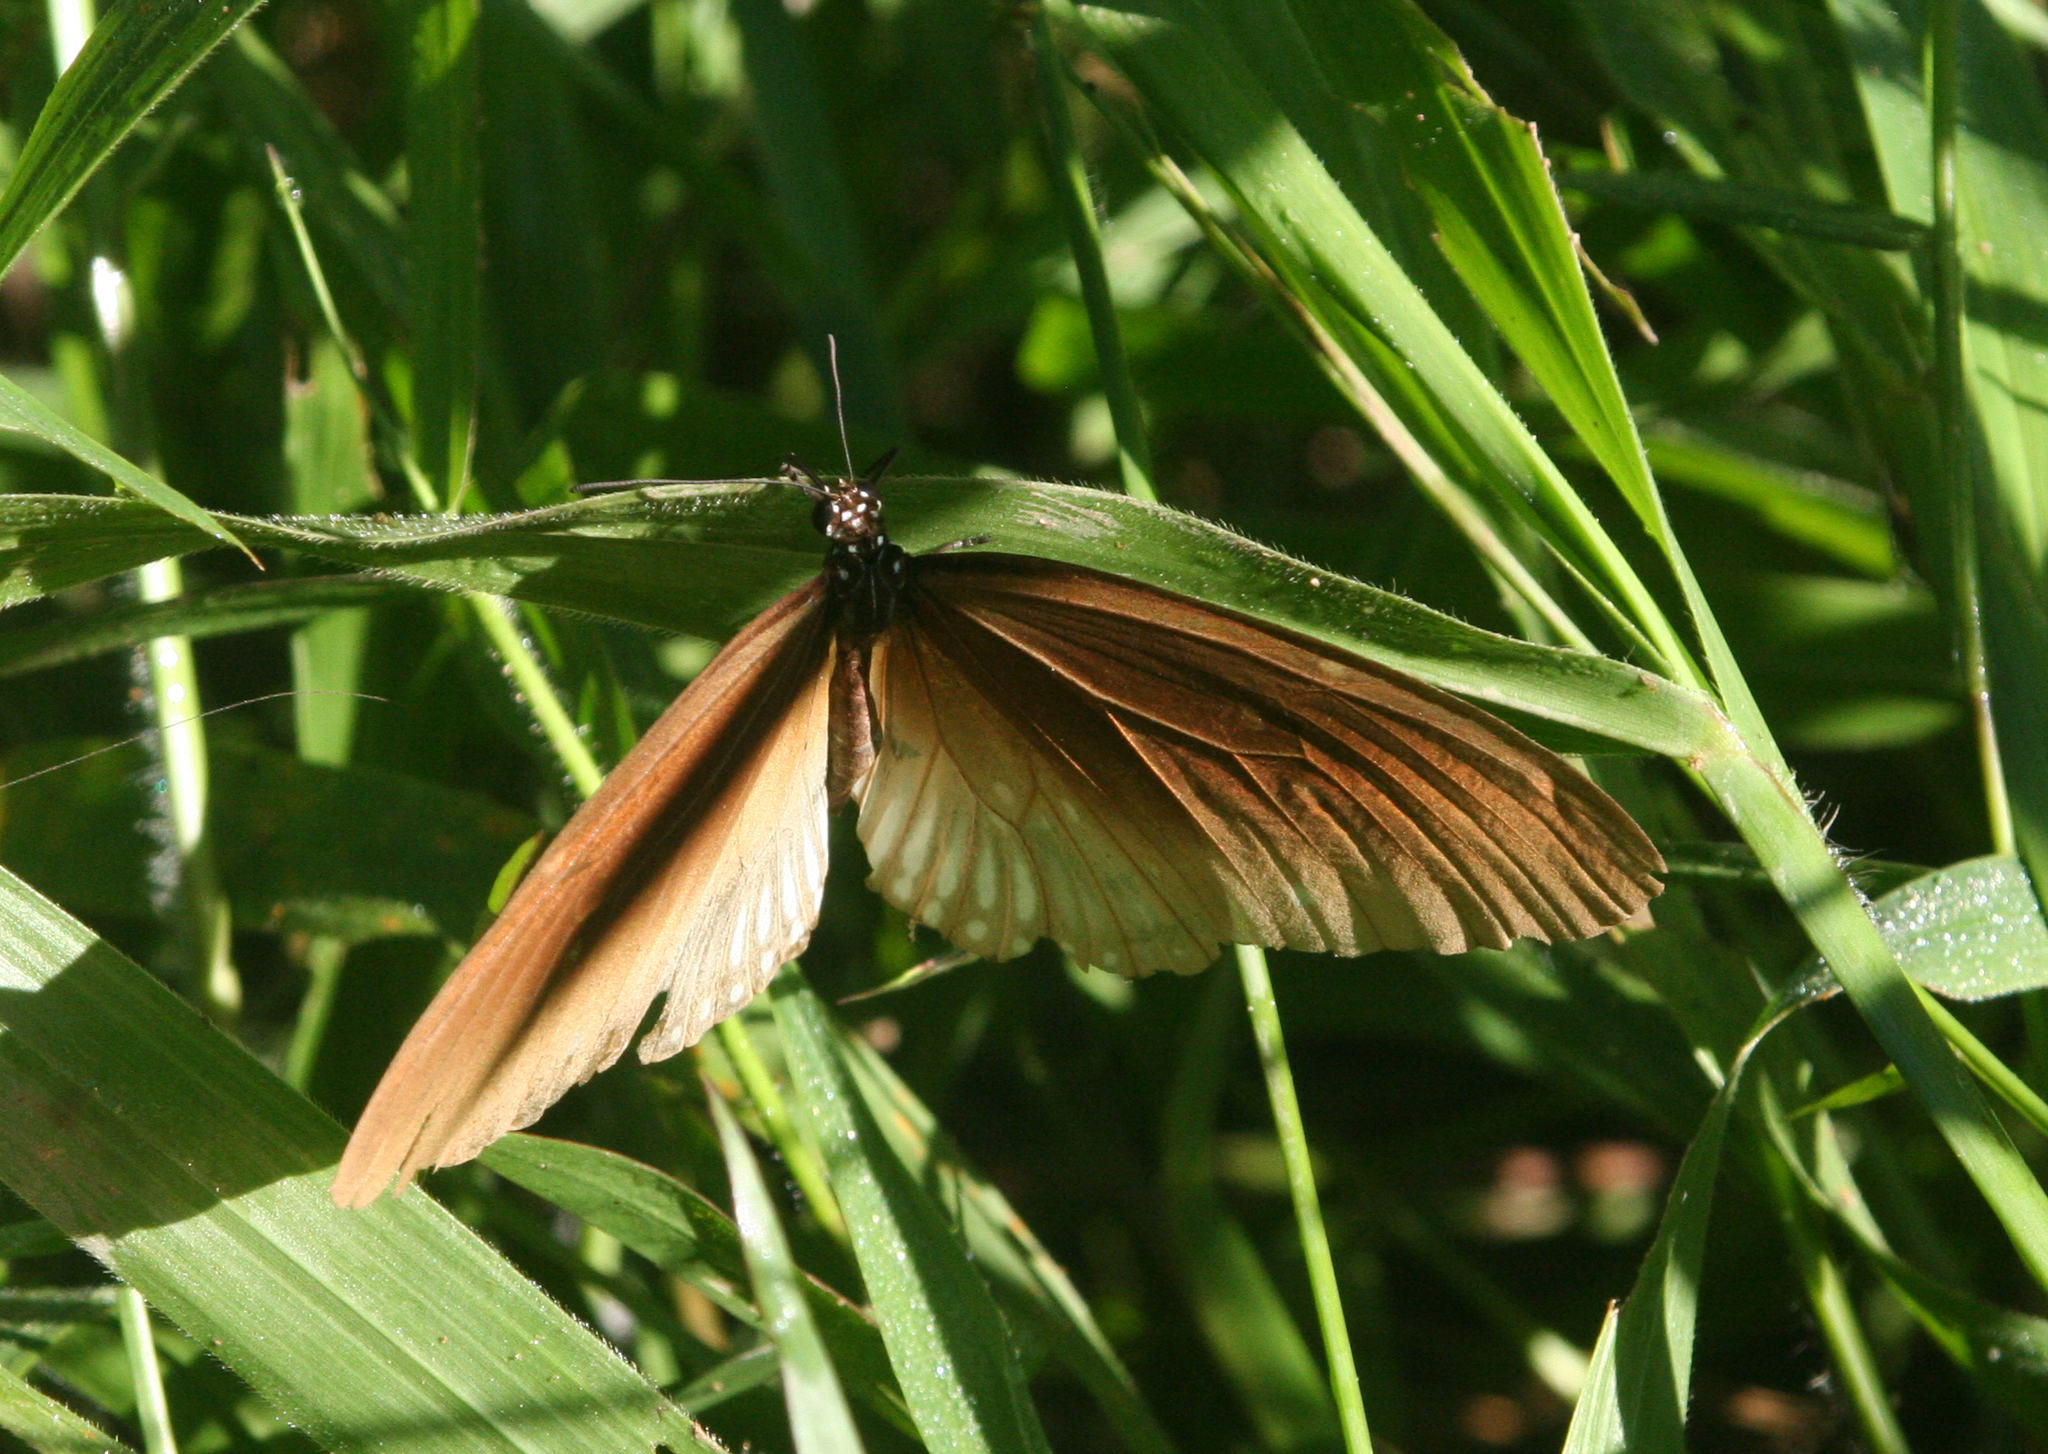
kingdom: Animalia
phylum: Arthropoda
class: Insecta
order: Lepidoptera
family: Nymphalidae
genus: Euploea
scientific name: Euploea eyndhovii
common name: Striped black crow butterfly
